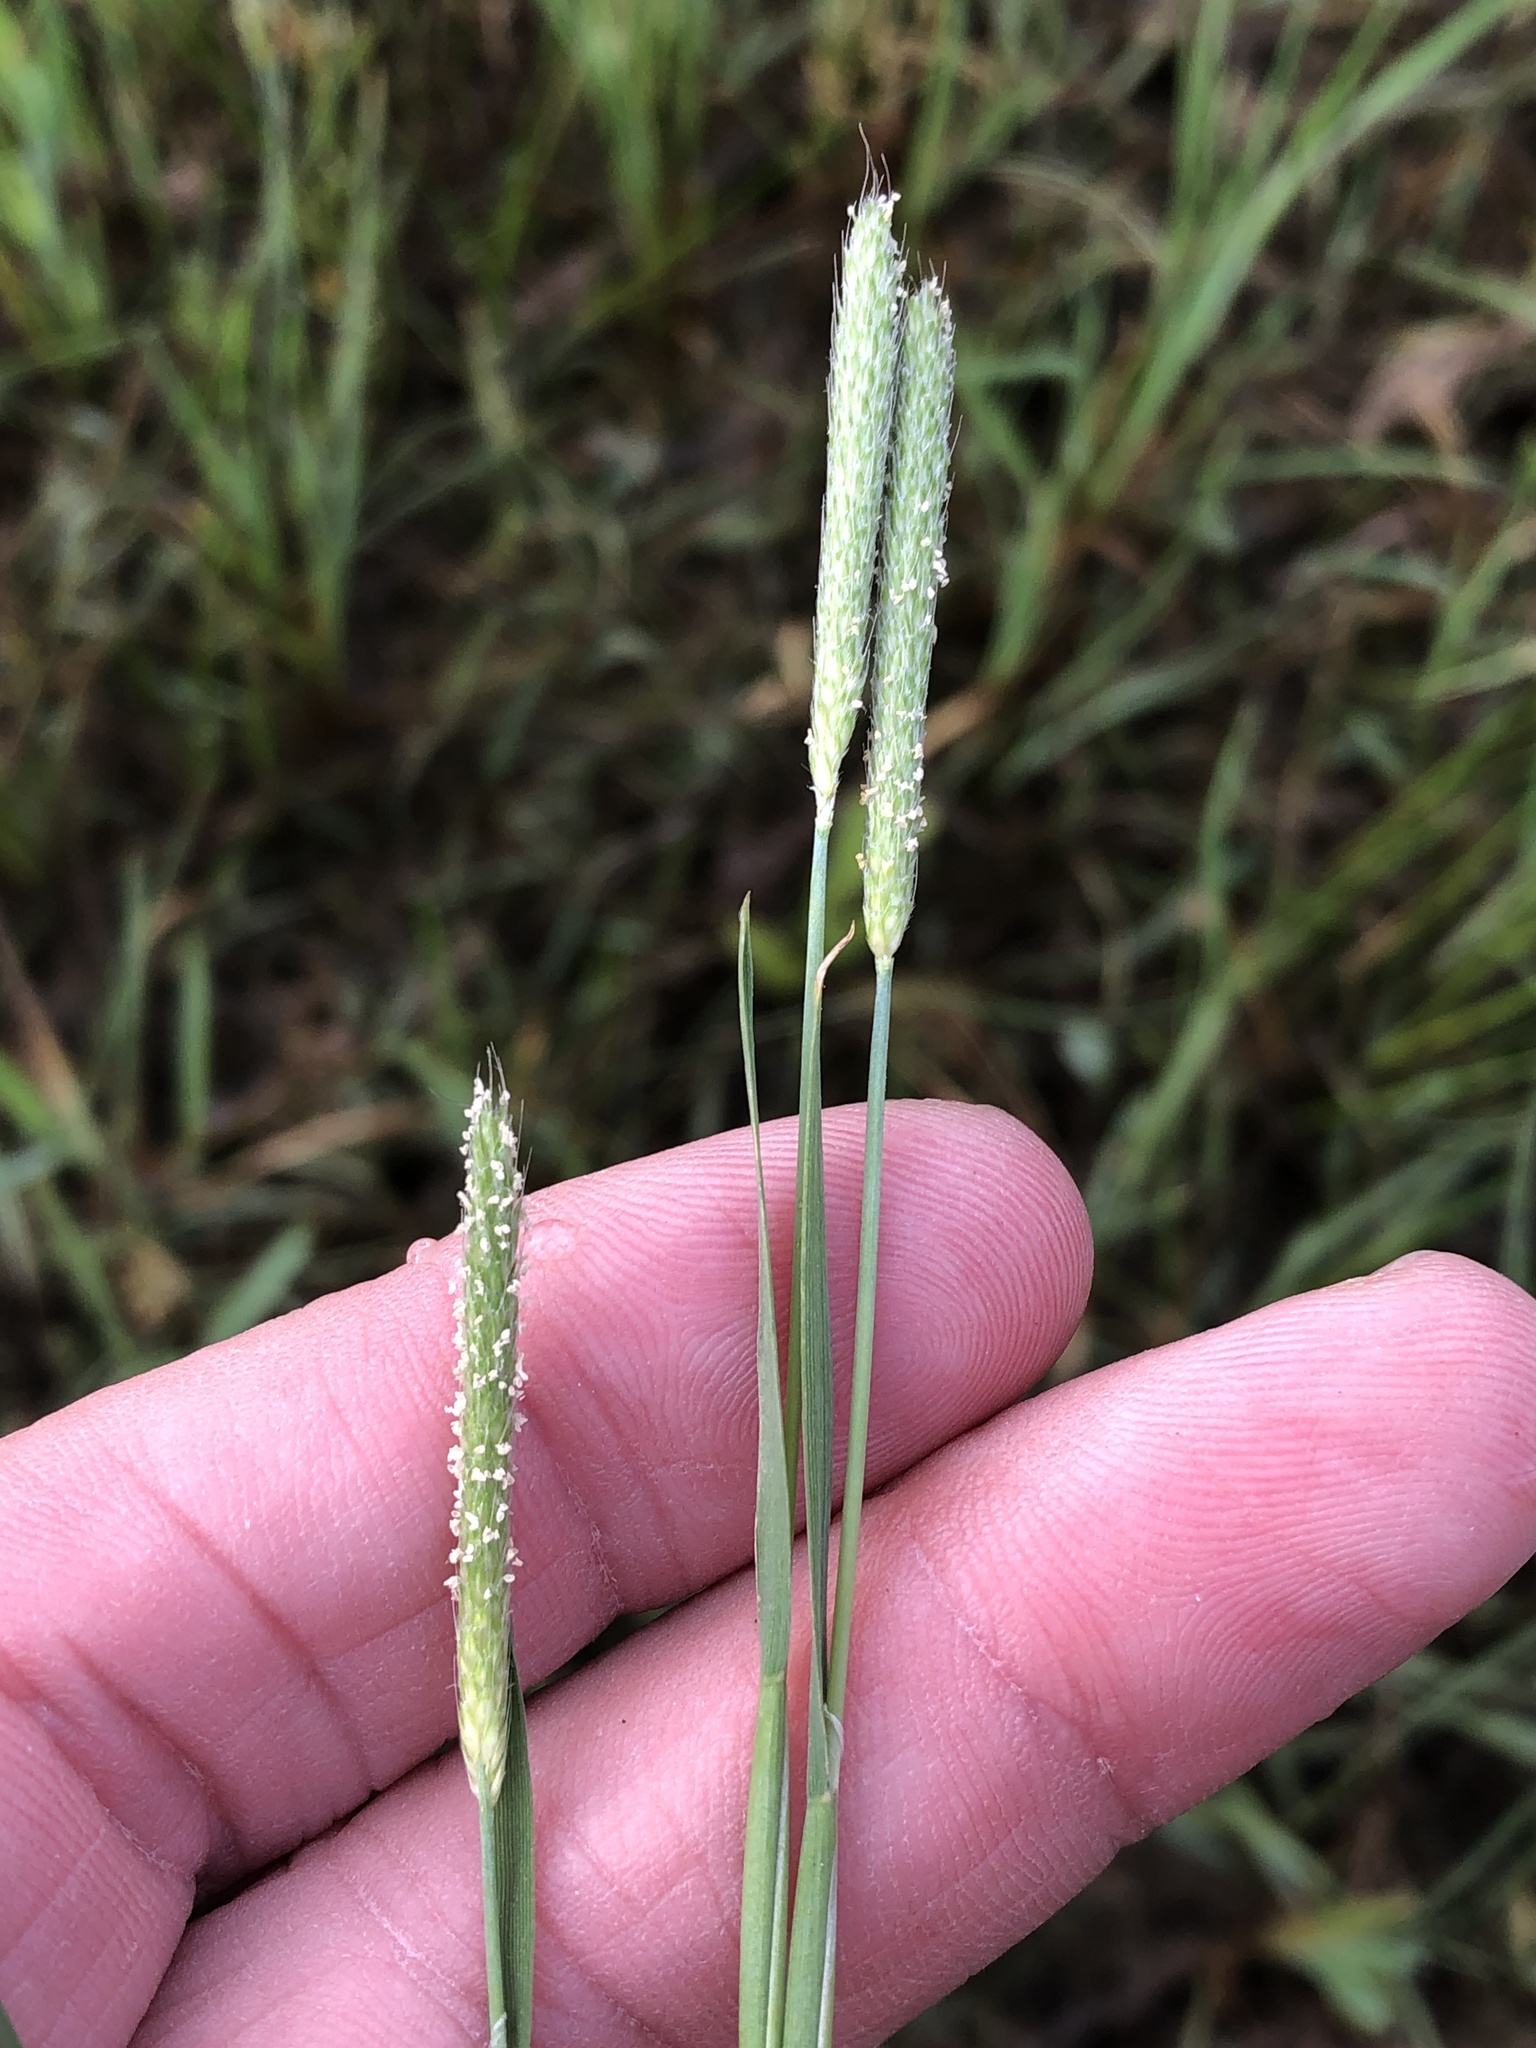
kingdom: Plantae
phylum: Tracheophyta
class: Liliopsida
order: Poales
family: Poaceae
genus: Alopecurus
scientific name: Alopecurus carolinianus
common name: Tufted foxtail
